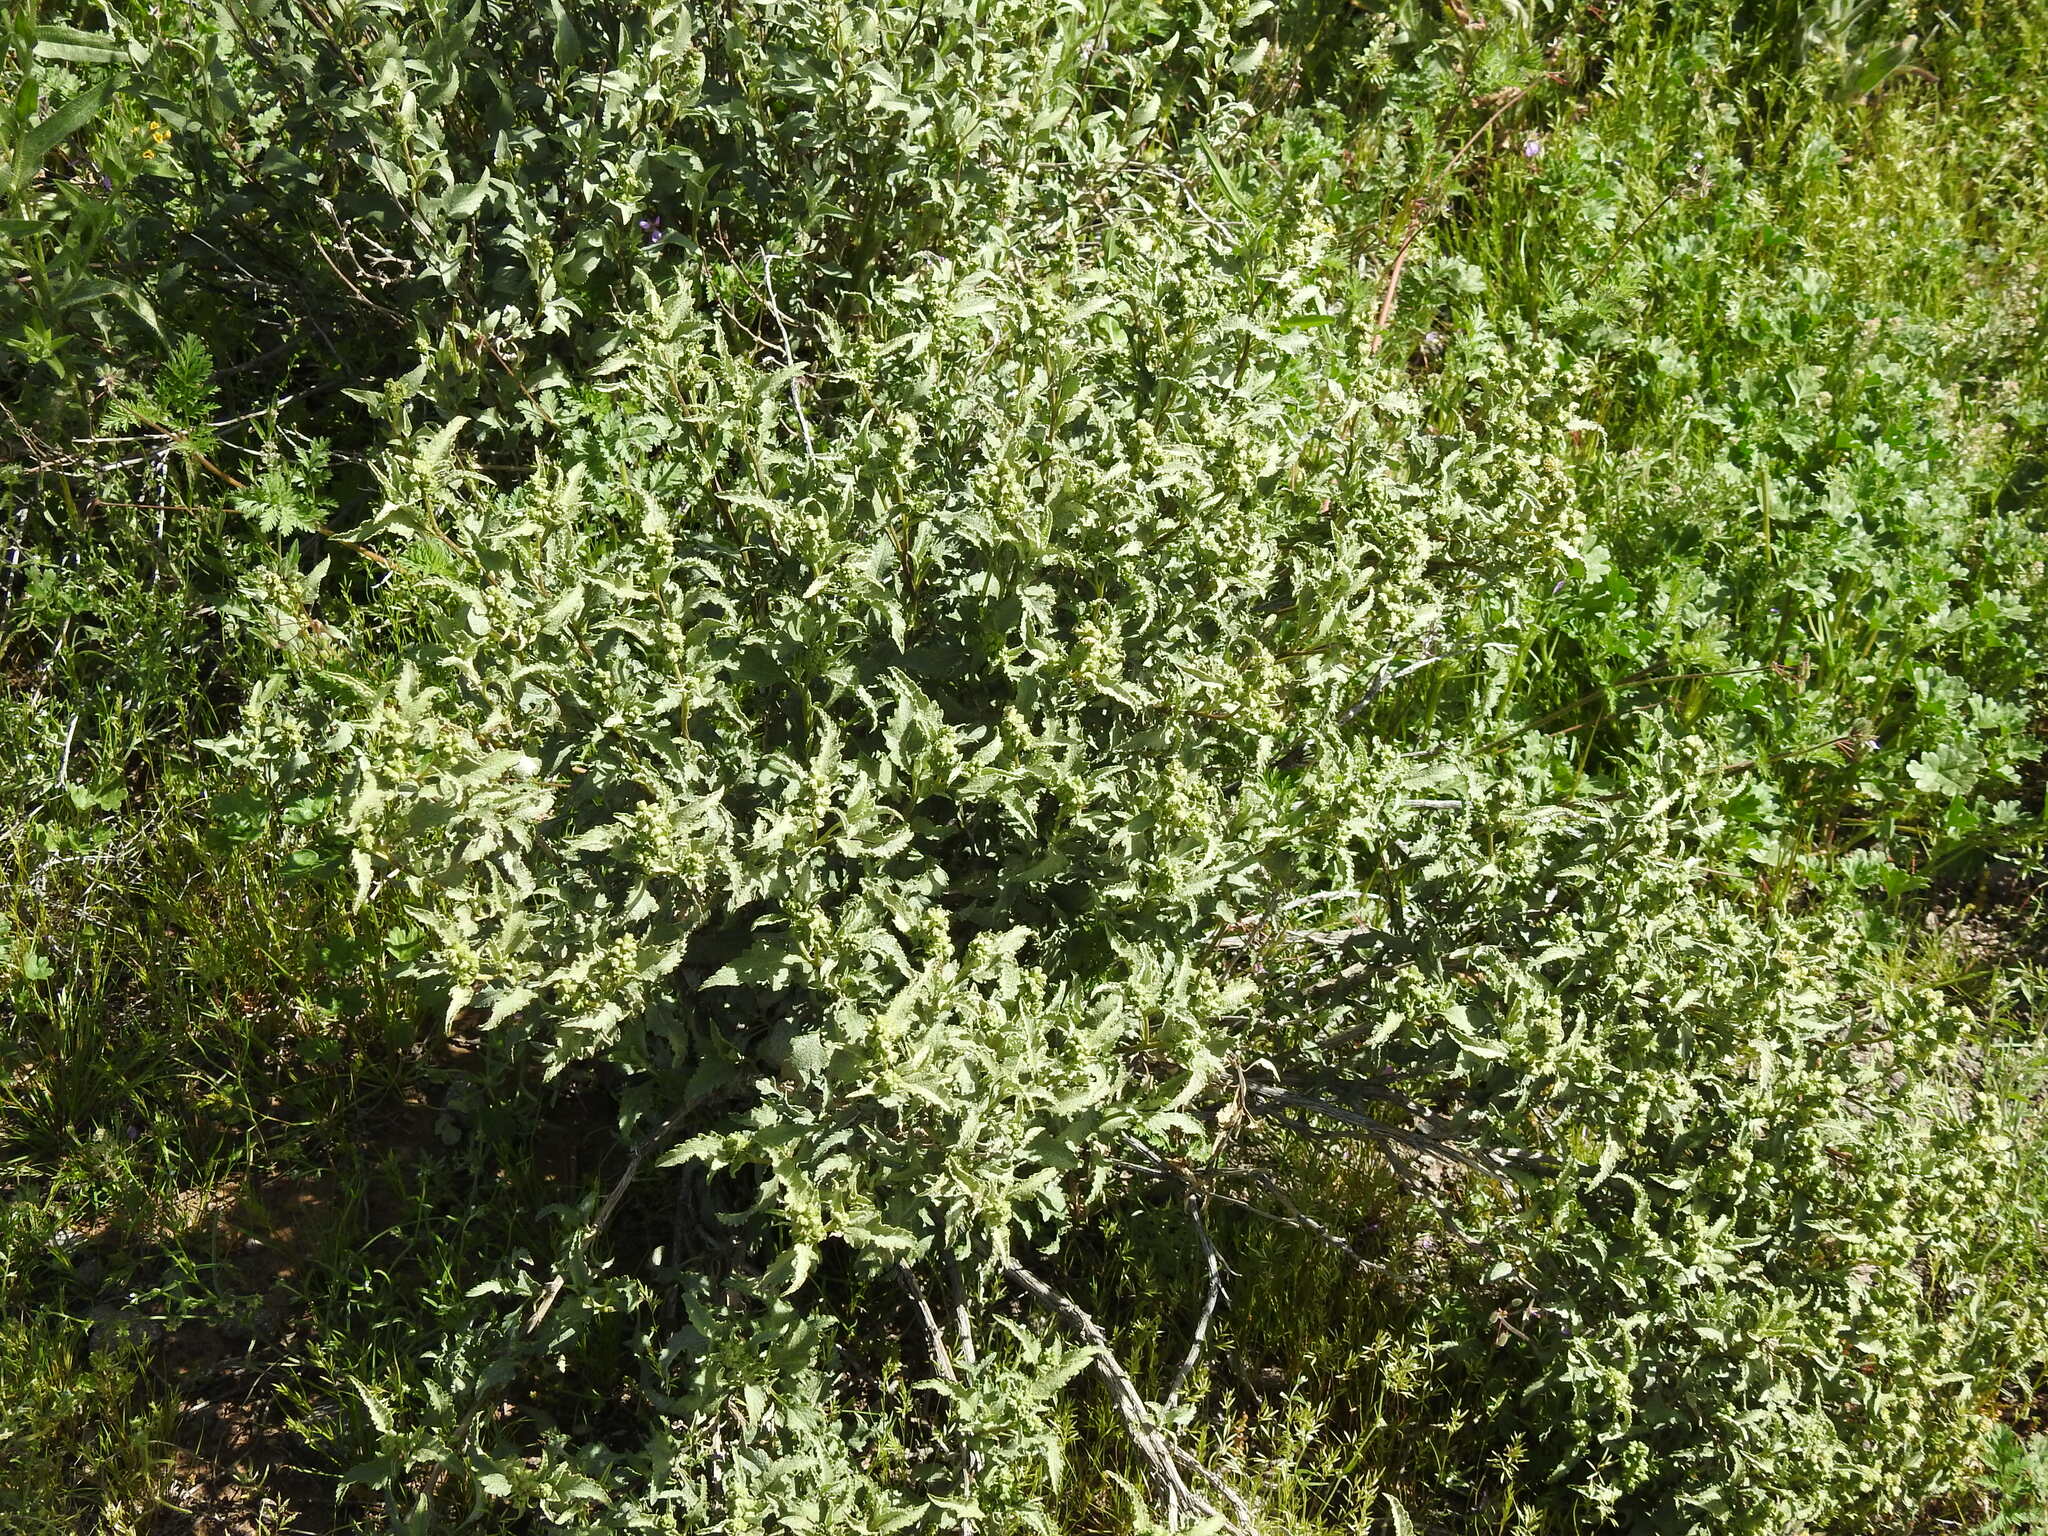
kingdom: Plantae
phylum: Tracheophyta
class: Magnoliopsida
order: Asterales
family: Asteraceae
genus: Ambrosia
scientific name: Ambrosia deltoidea
